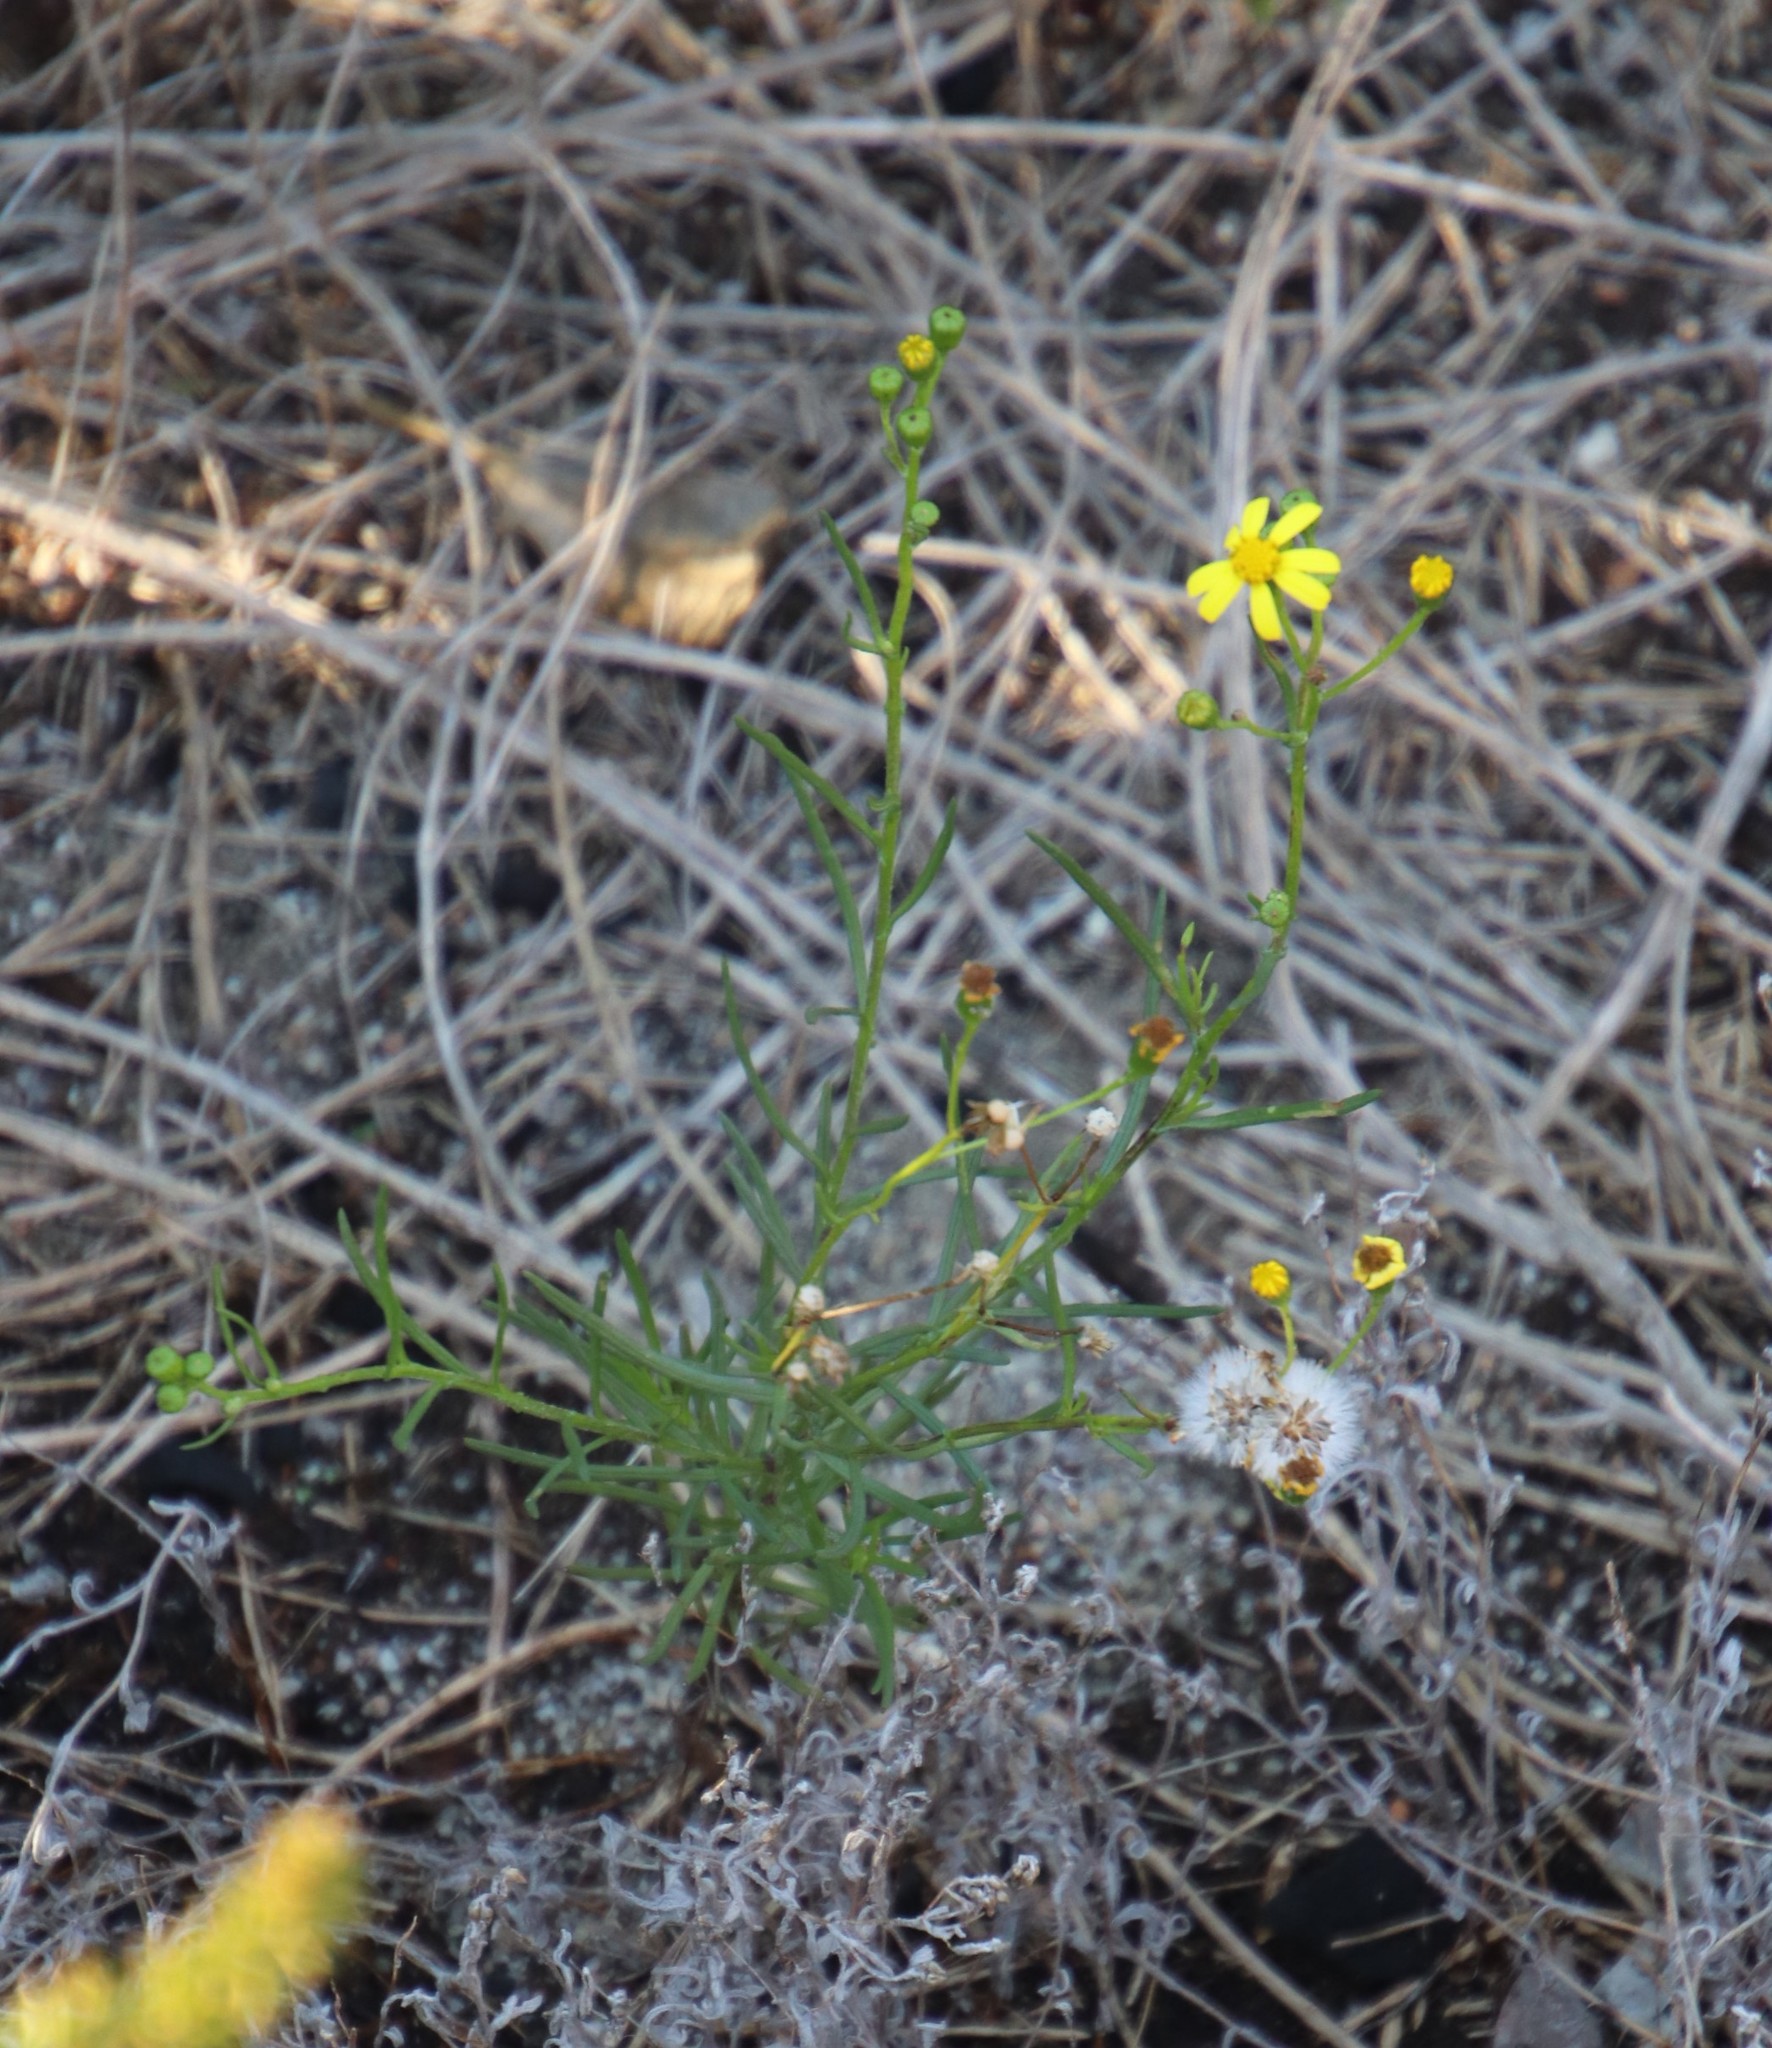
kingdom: Plantae
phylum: Tracheophyta
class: Magnoliopsida
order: Asterales
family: Asteraceae
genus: Senecio
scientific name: Senecio burchellii
